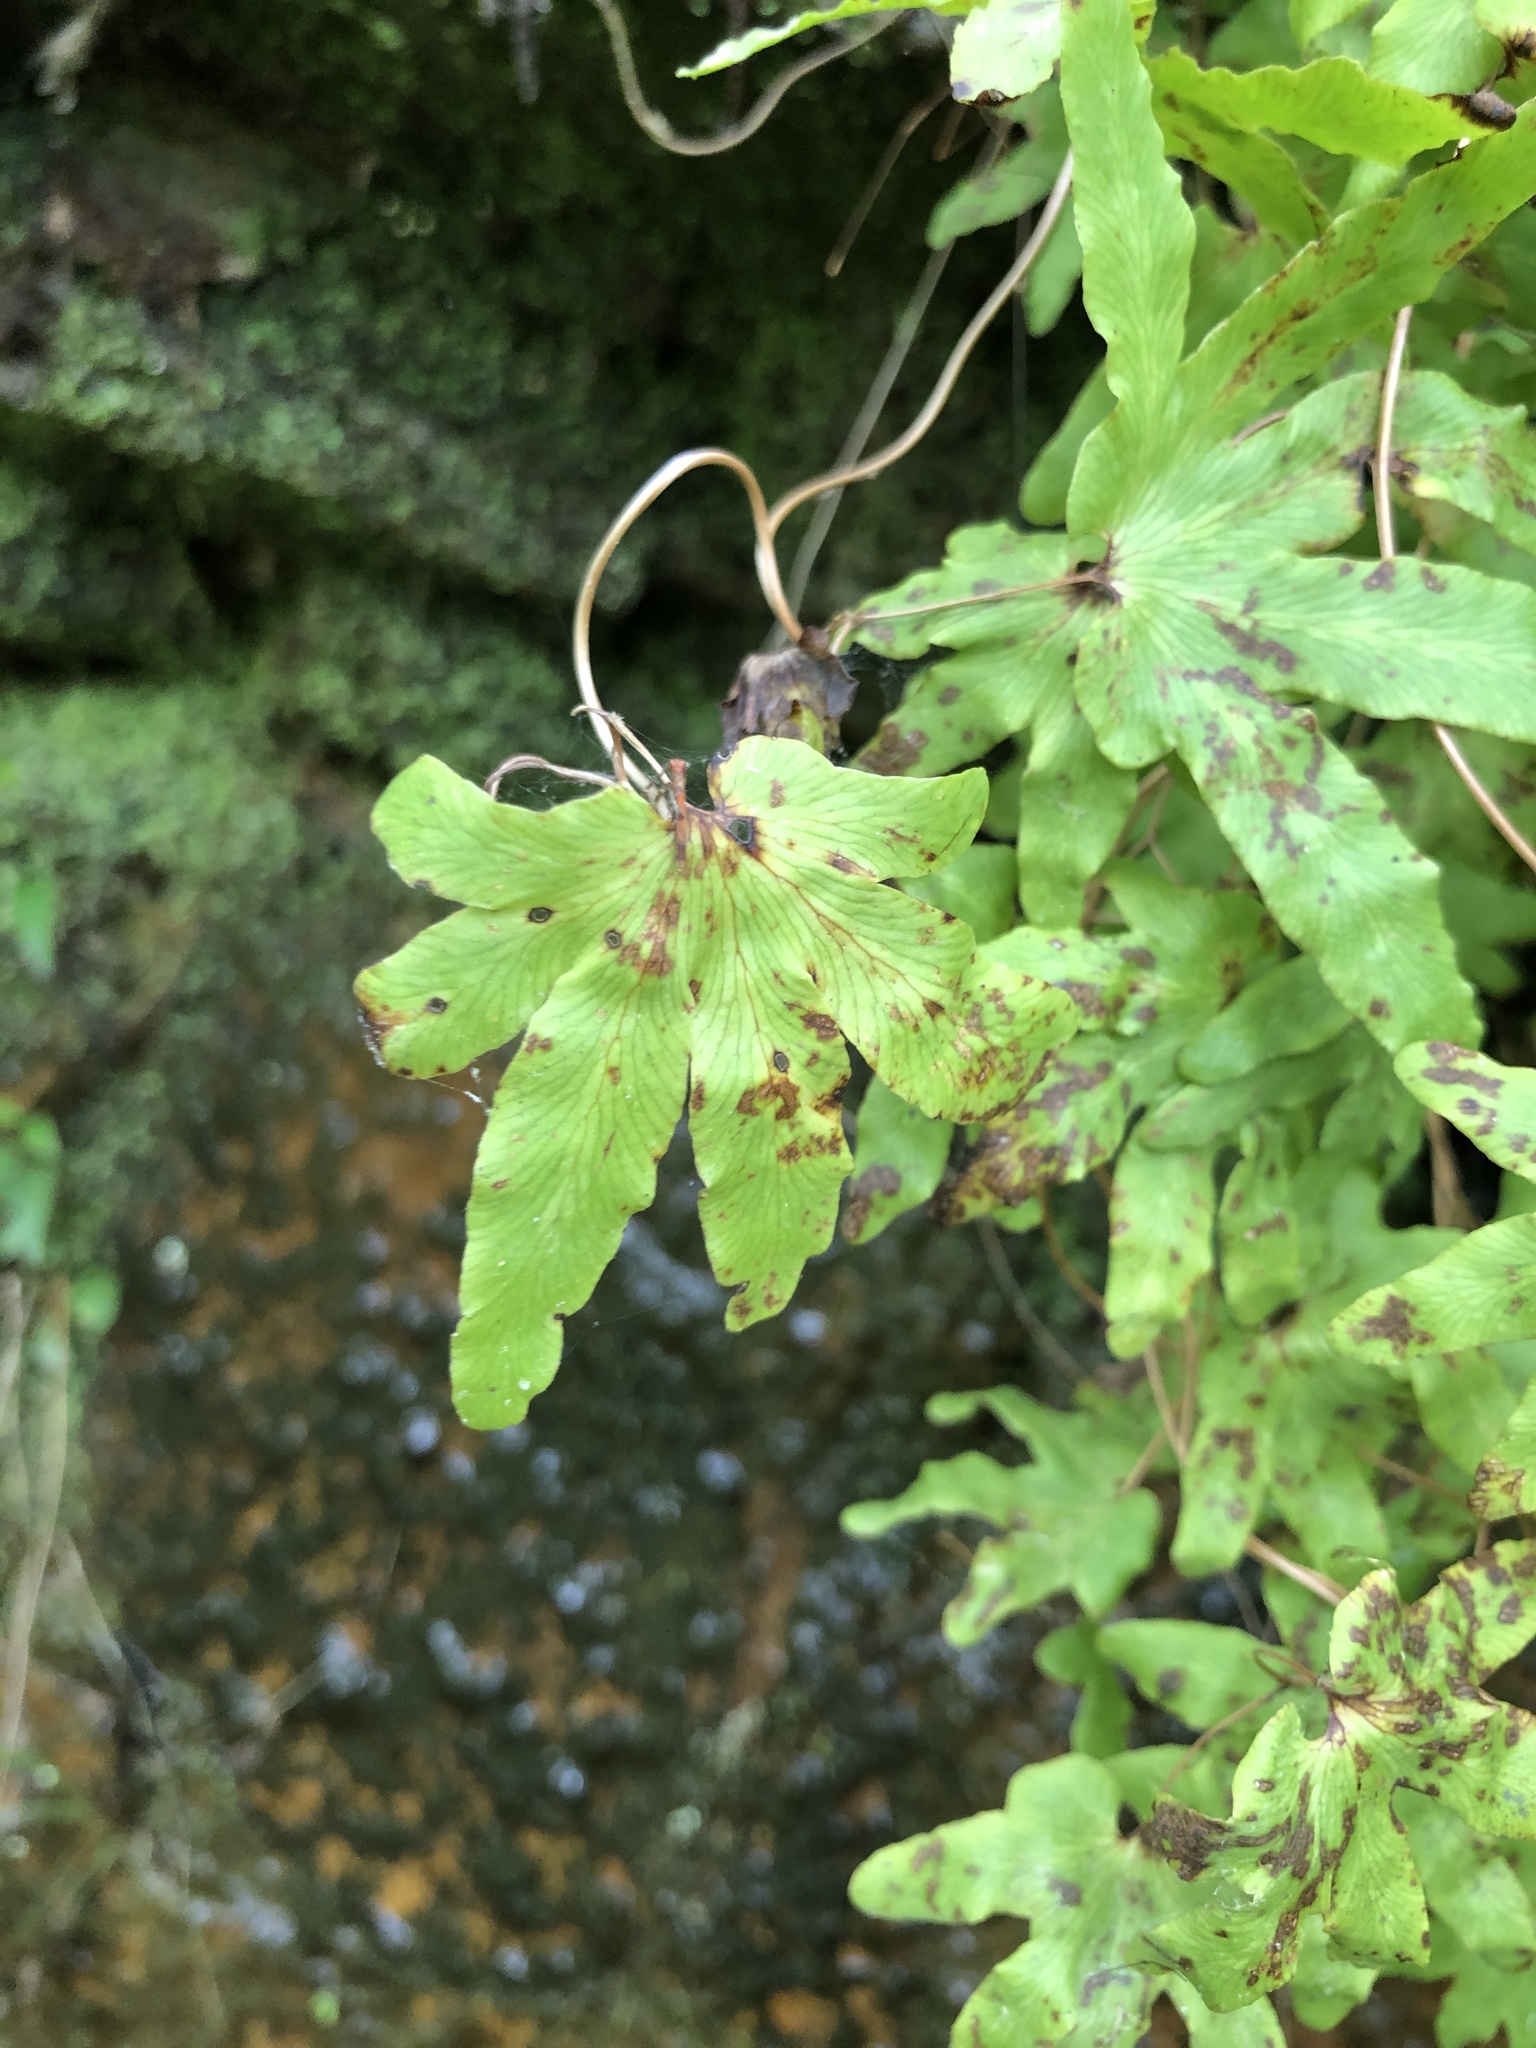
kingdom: Plantae
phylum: Tracheophyta
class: Polypodiopsida
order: Schizaeales
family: Lygodiaceae
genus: Lygodium
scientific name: Lygodium palmatum
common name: American climbing fern
